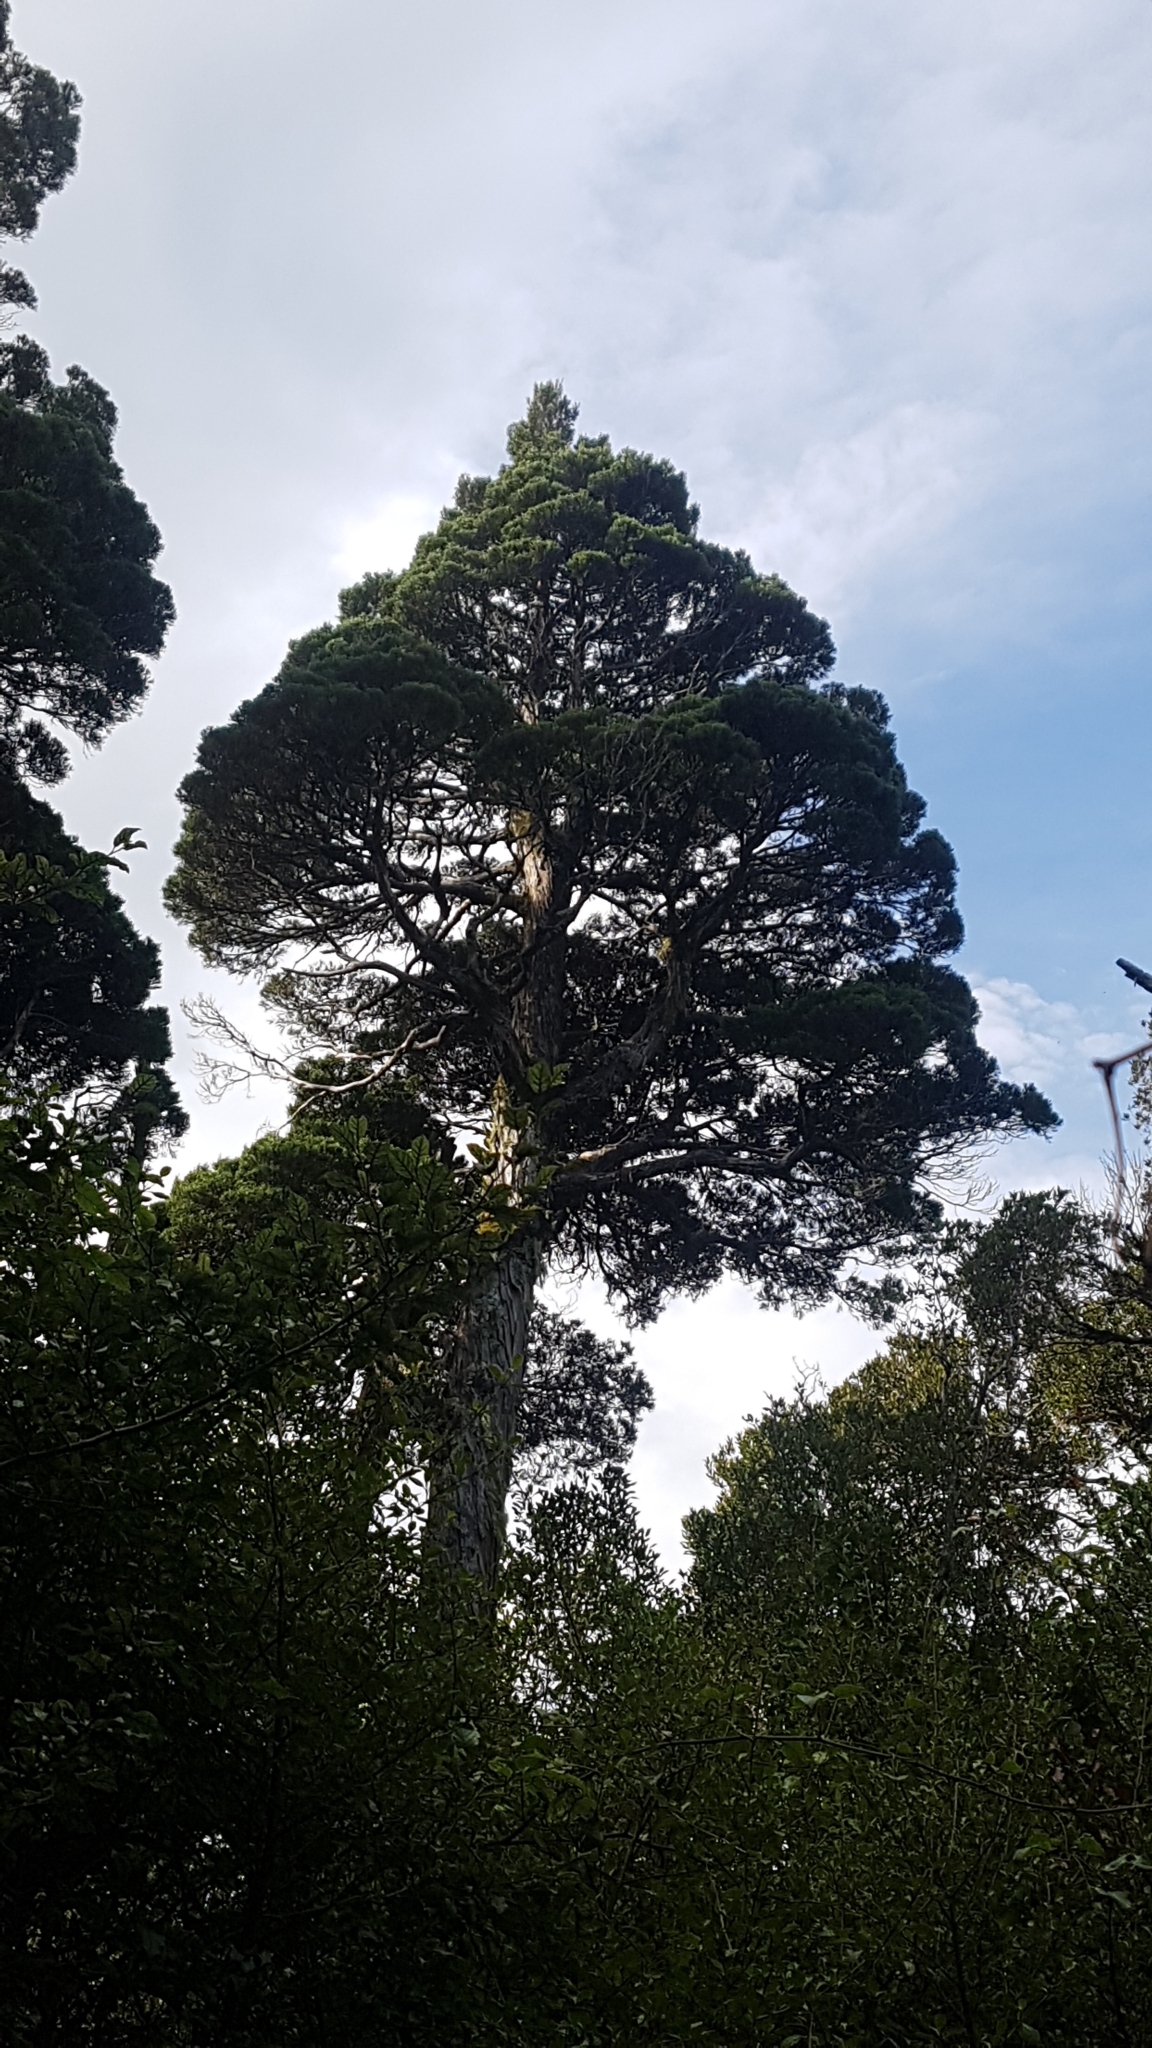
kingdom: Plantae
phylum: Tracheophyta
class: Pinopsida
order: Pinales
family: Cupressaceae
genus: Libocedrus
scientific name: Libocedrus bidwillii
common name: Cedar
